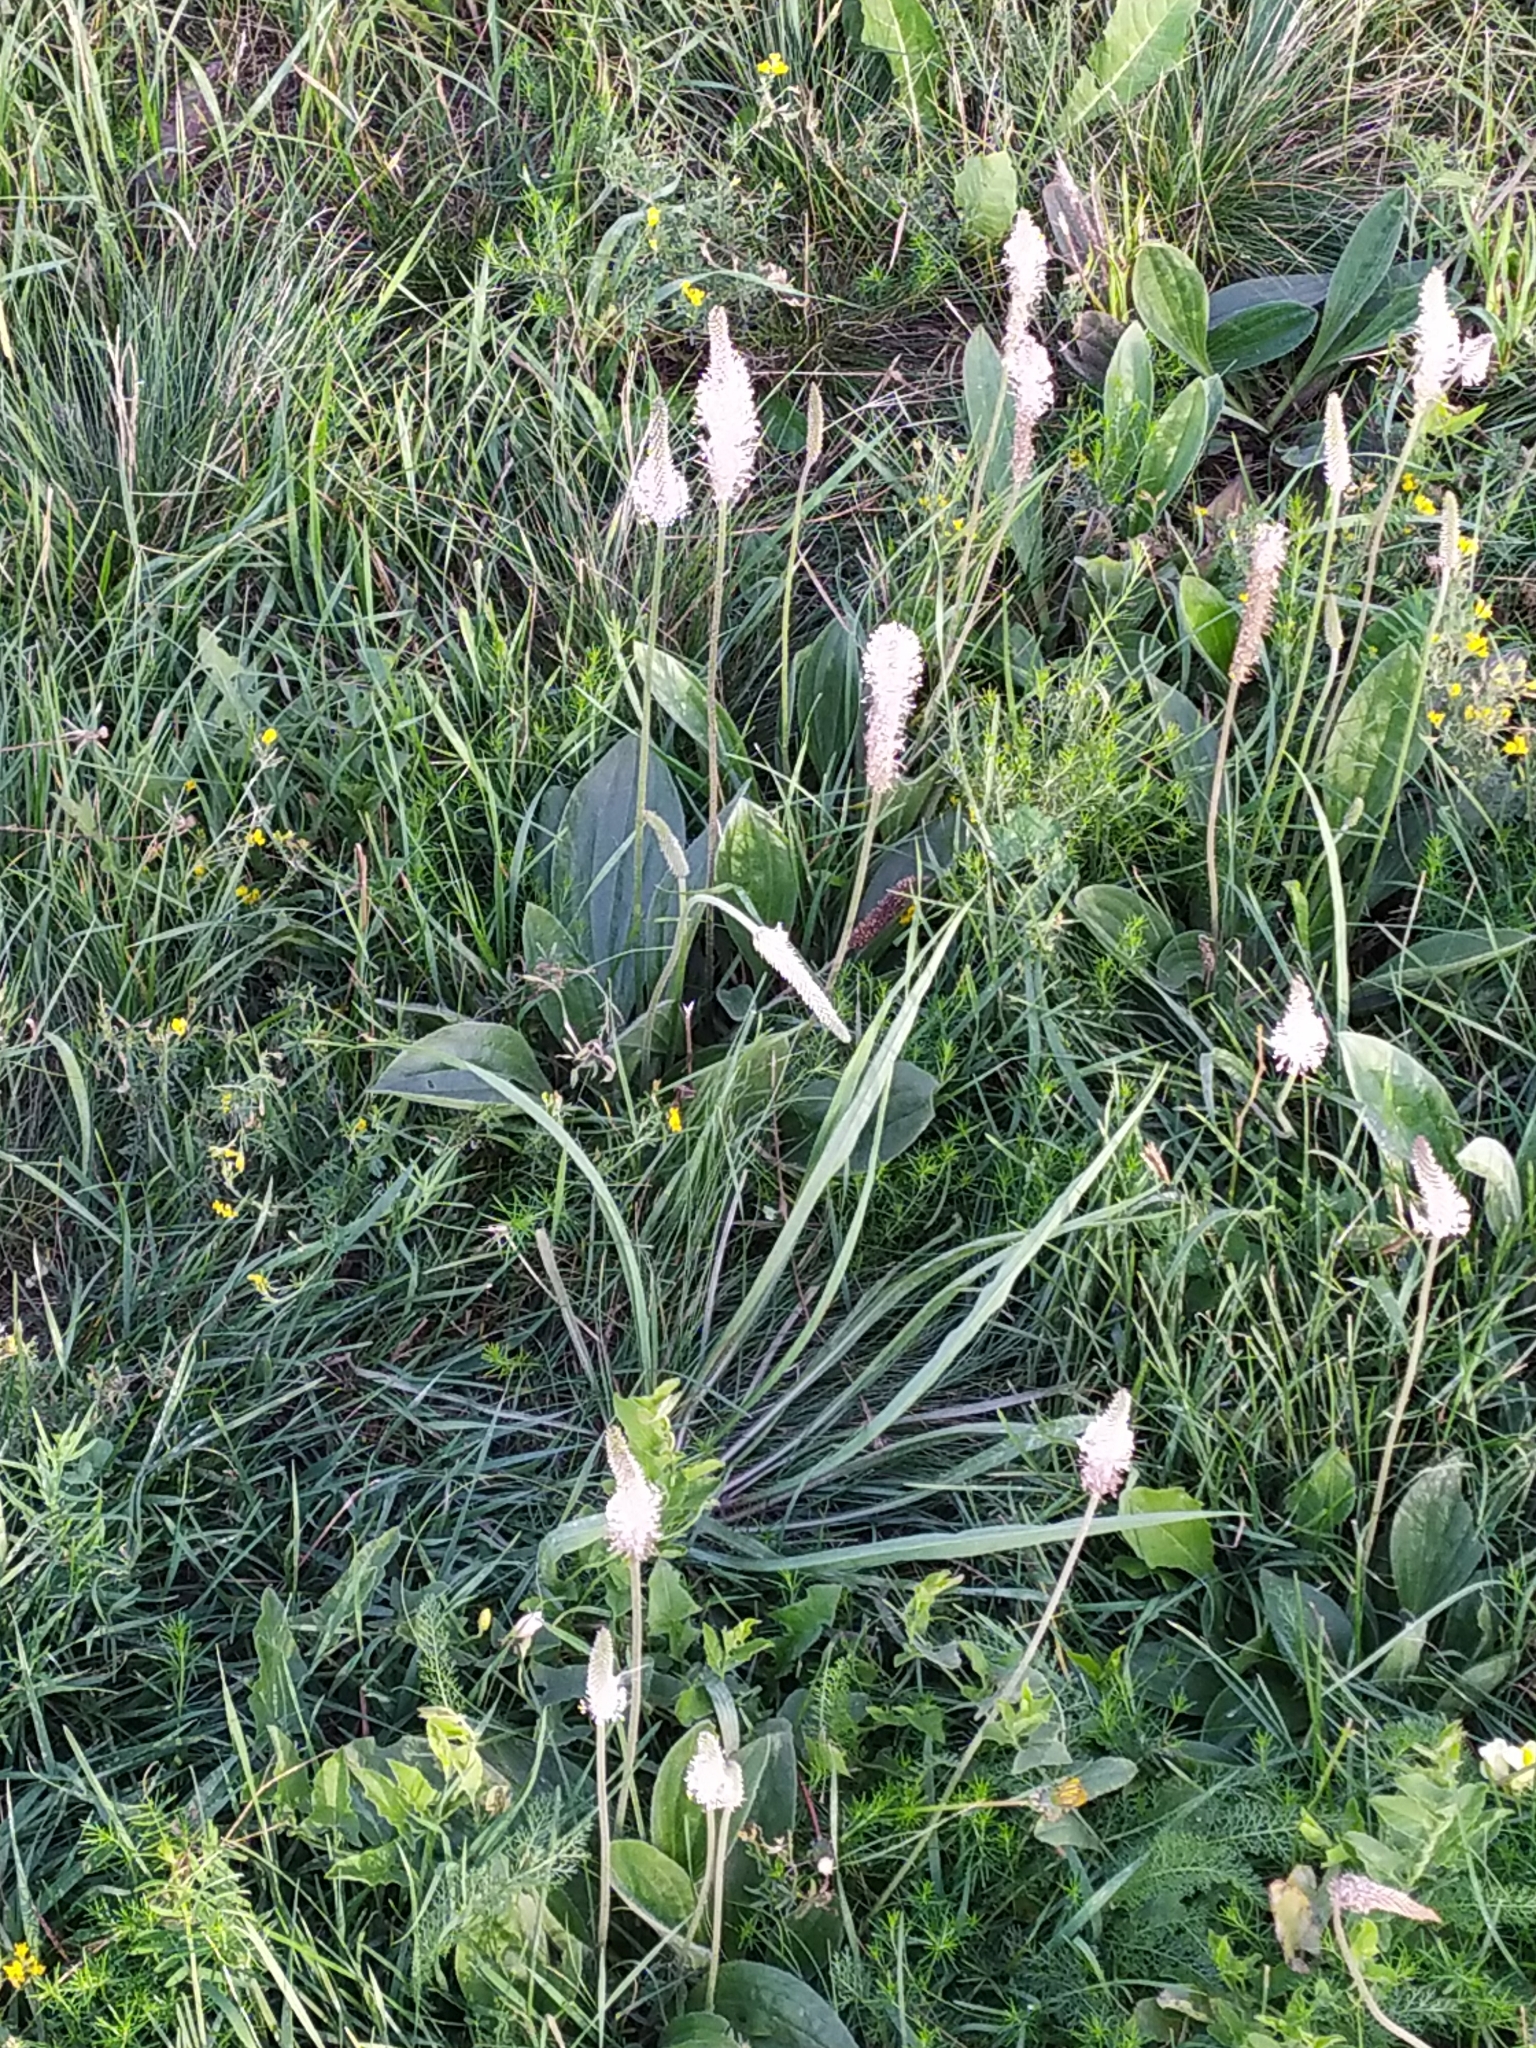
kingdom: Plantae
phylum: Tracheophyta
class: Magnoliopsida
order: Lamiales
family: Plantaginaceae
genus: Plantago
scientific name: Plantago media
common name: Hoary plantain
